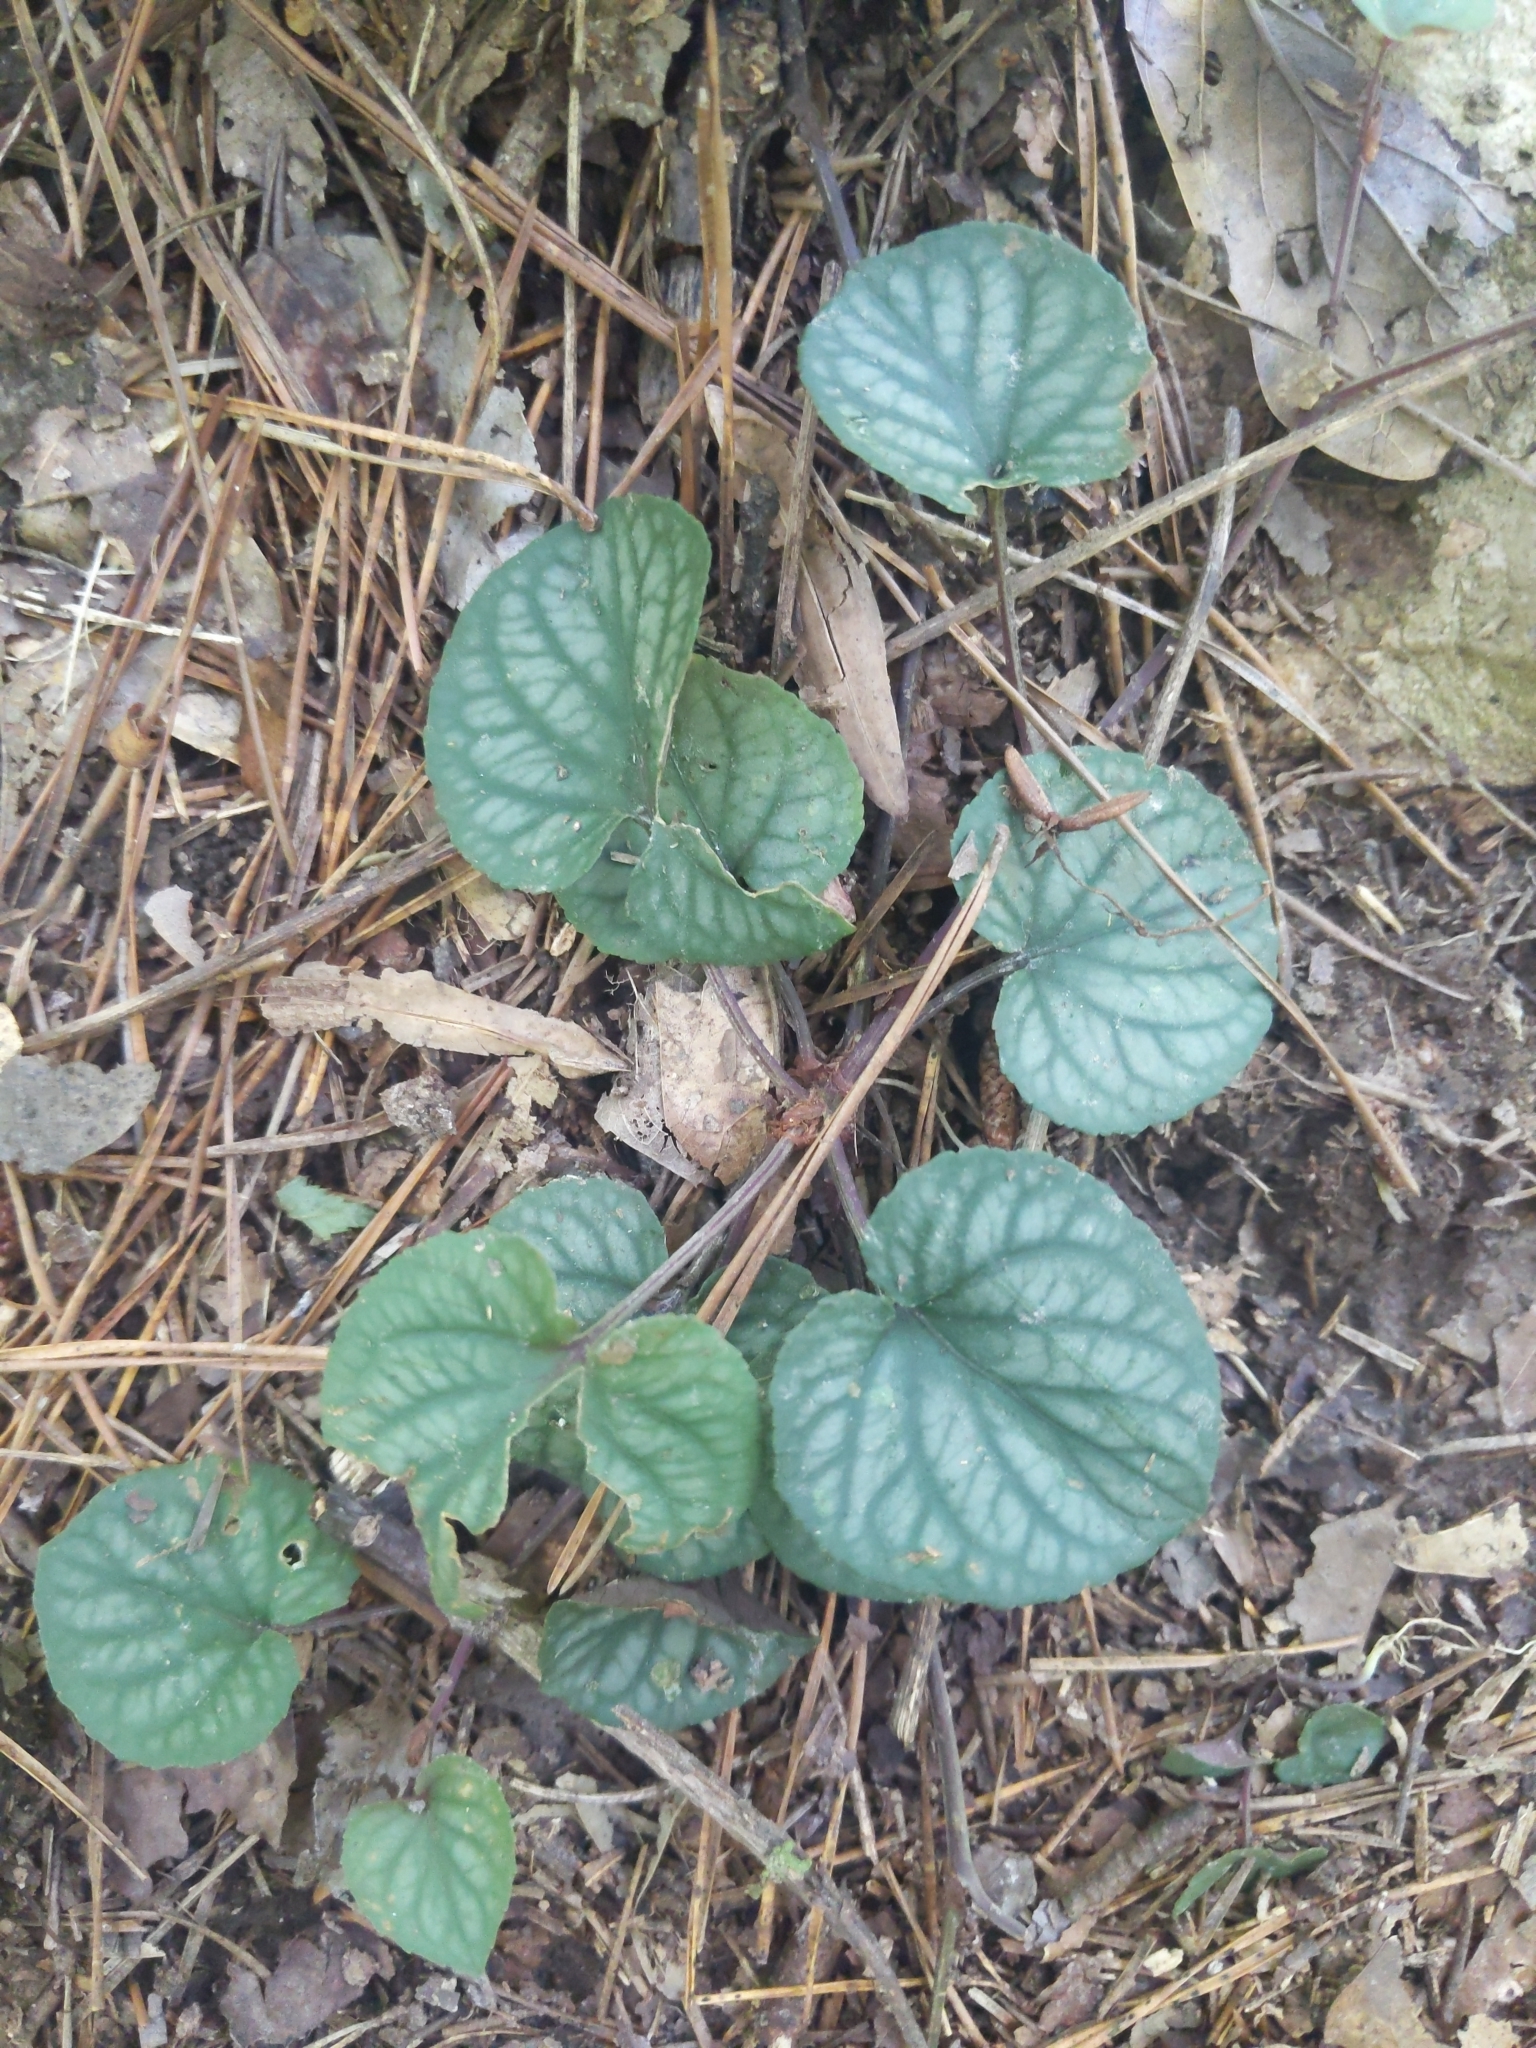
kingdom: Plantae
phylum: Tracheophyta
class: Magnoliopsida
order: Malpighiales
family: Violaceae
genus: Viola
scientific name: Viola walteri
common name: Prostrate southern violet
